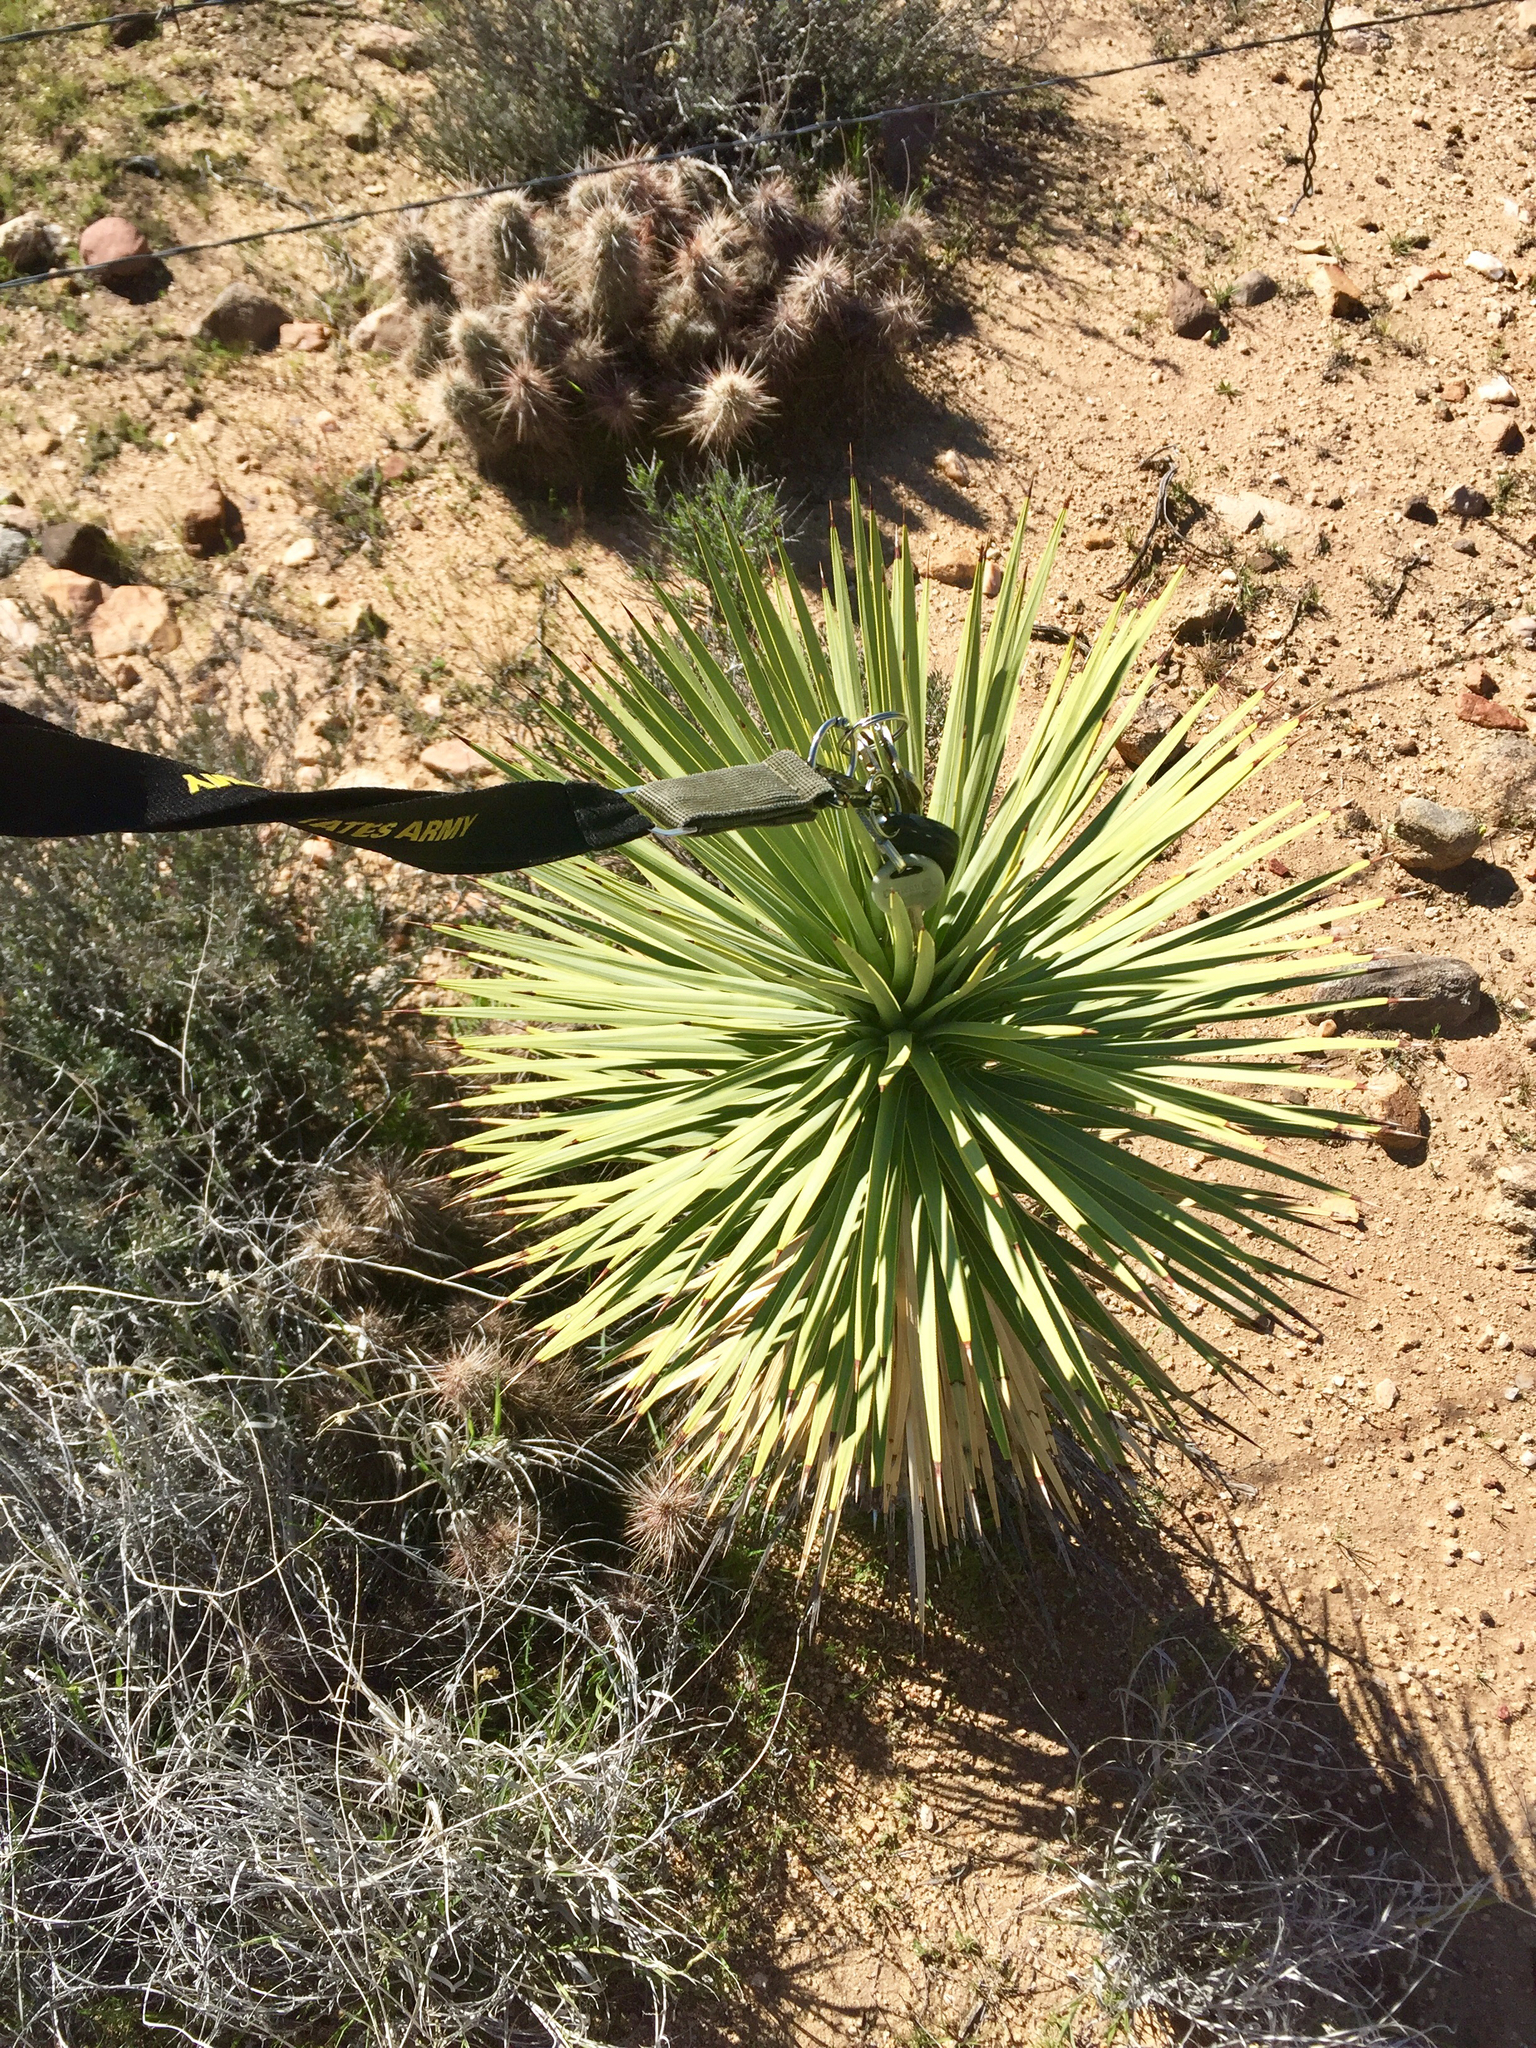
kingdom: Plantae
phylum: Tracheophyta
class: Liliopsida
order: Asparagales
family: Asparagaceae
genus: Yucca
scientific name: Yucca brevifolia
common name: Joshua tree
